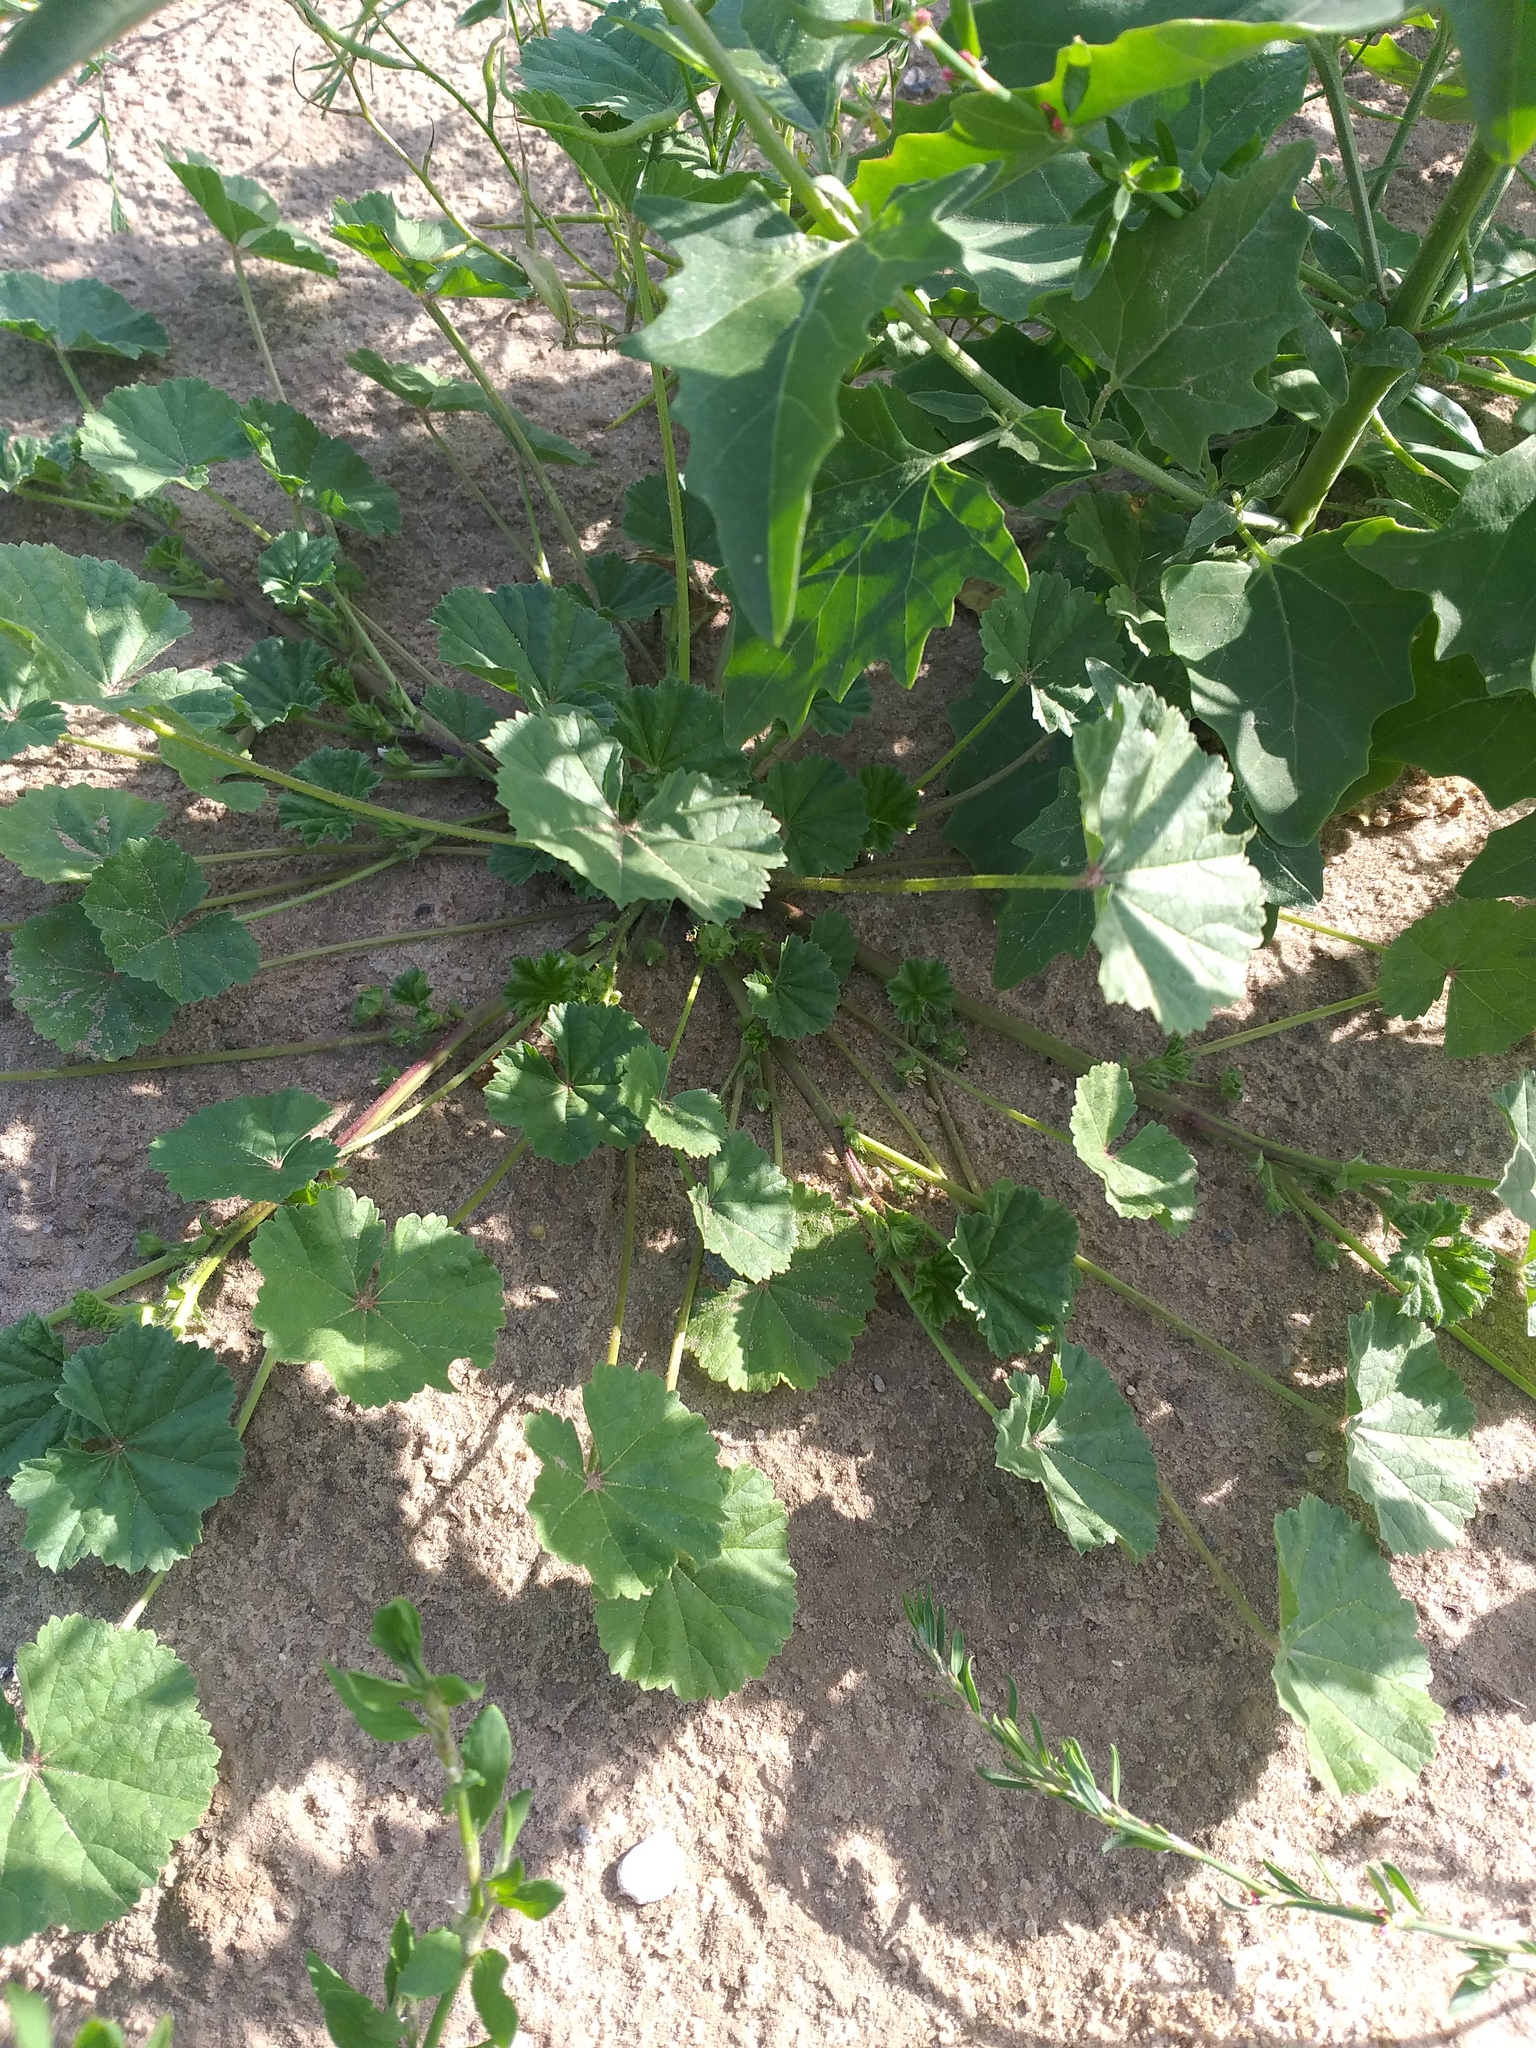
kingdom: Plantae
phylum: Tracheophyta
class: Magnoliopsida
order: Malvales
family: Malvaceae
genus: Malva
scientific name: Malva pusilla
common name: Small mallow
